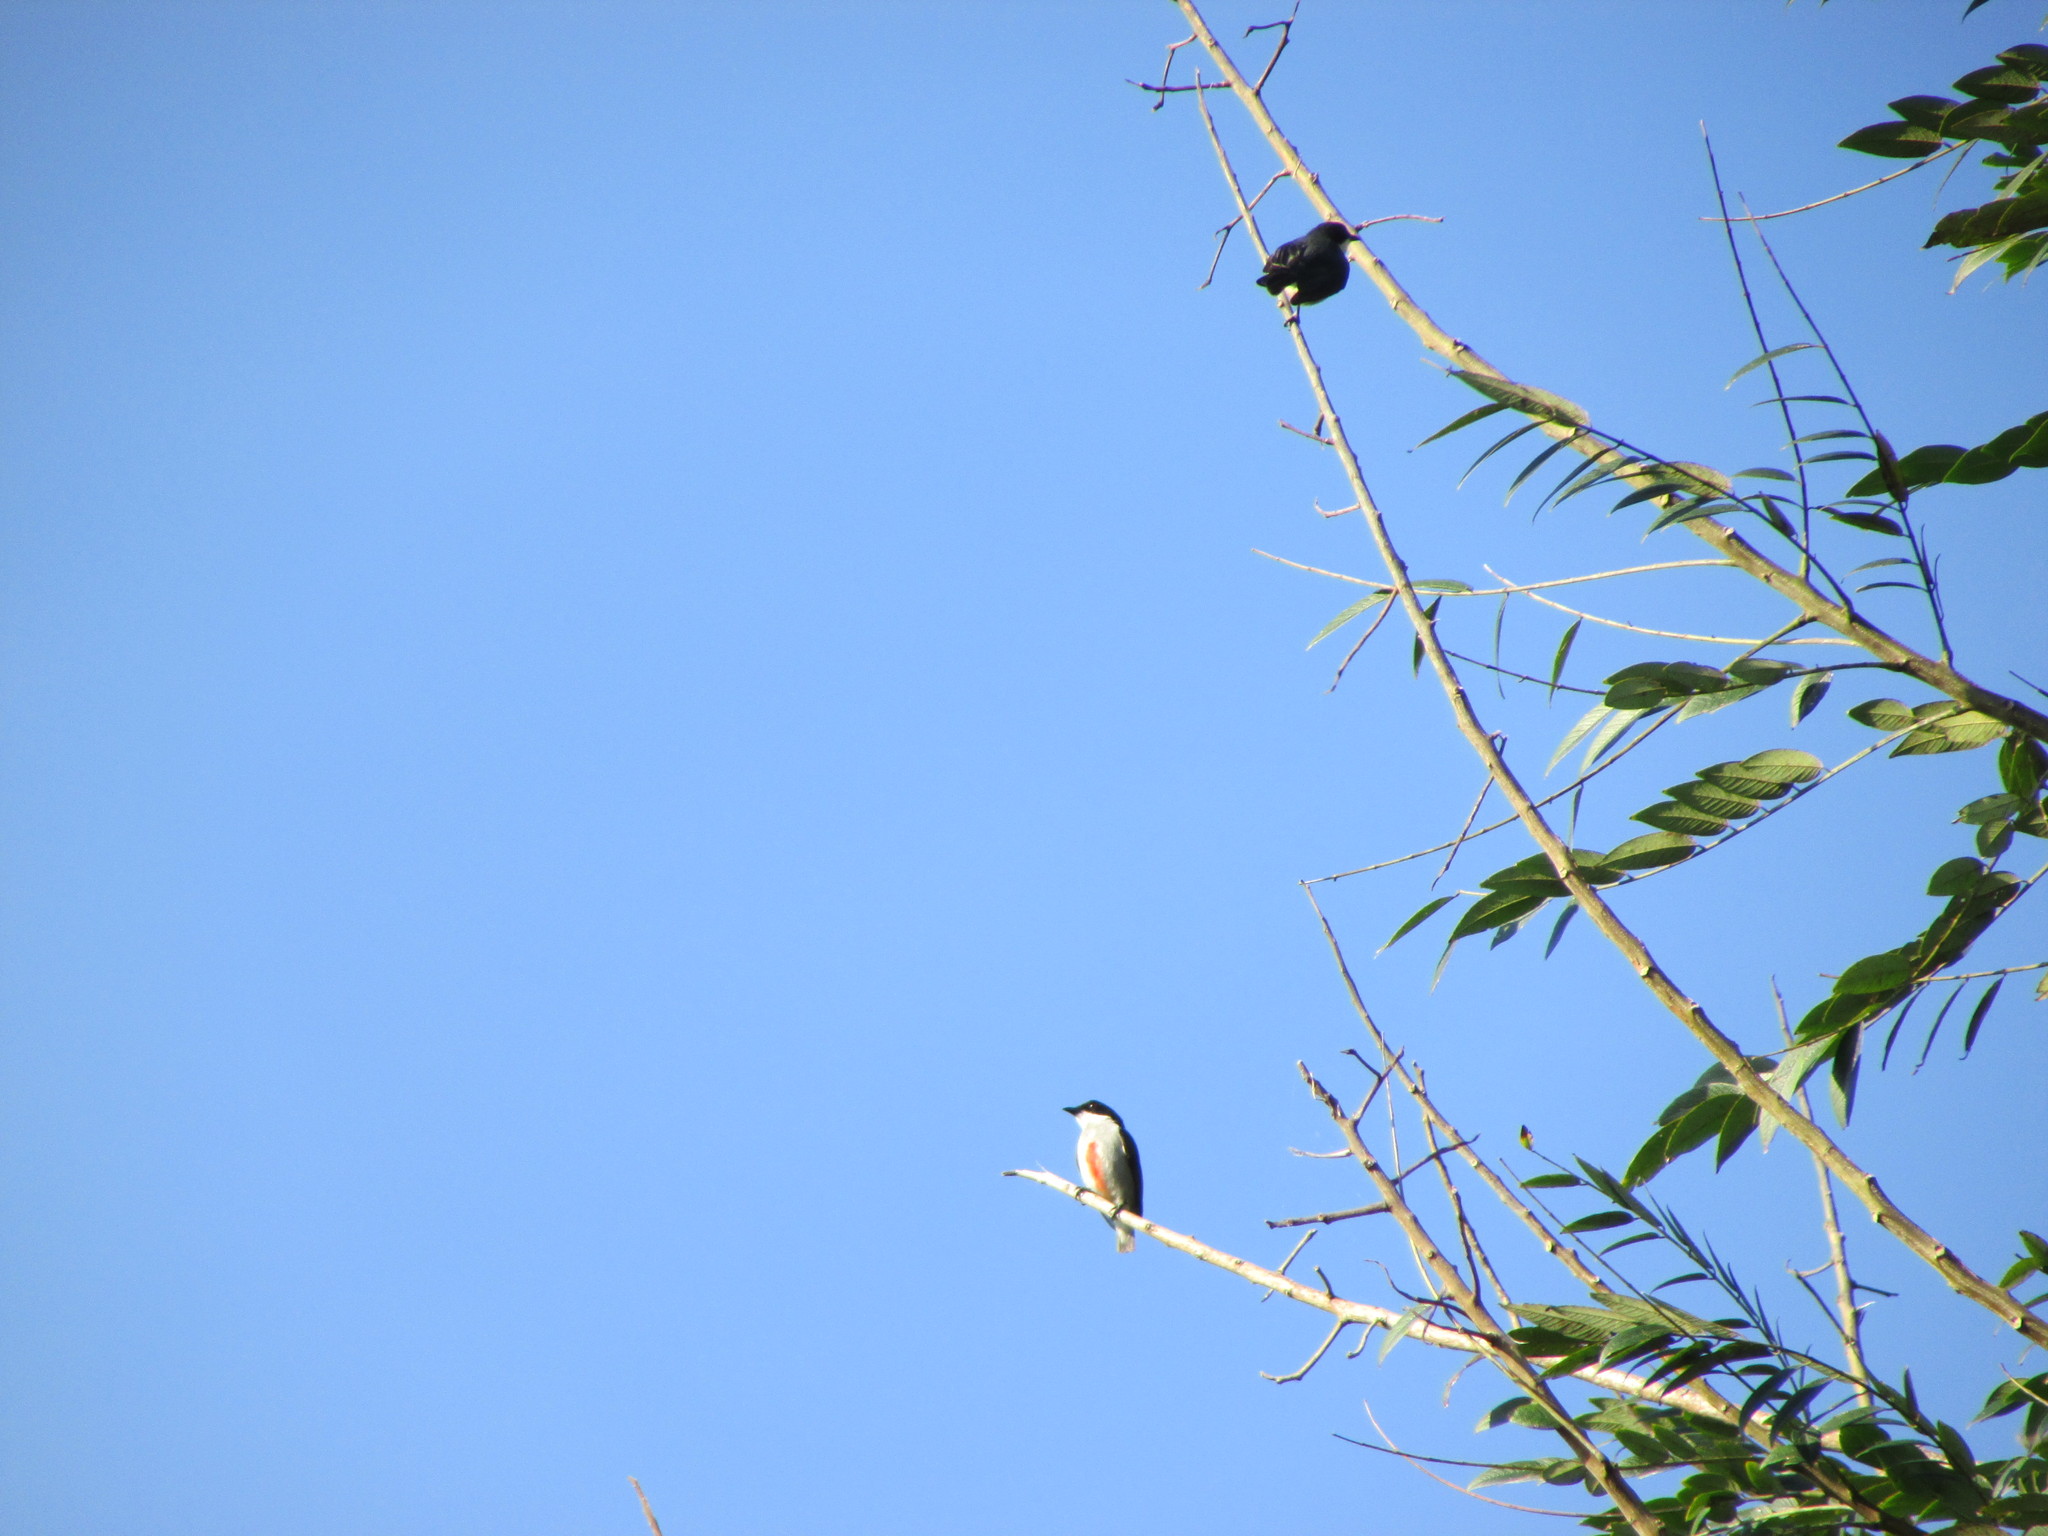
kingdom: Animalia
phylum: Chordata
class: Aves
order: Passeriformes
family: Dicaeidae
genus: Dicaeum
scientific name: Dicaeum australe
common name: Red-keeled flowerpecker
